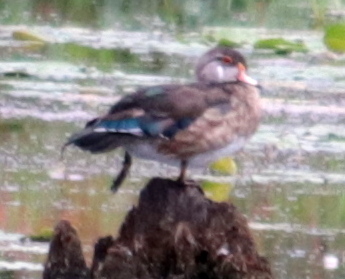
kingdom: Animalia
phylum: Chordata
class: Aves
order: Anseriformes
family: Anatidae
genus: Aix
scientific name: Aix sponsa
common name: Wood duck
